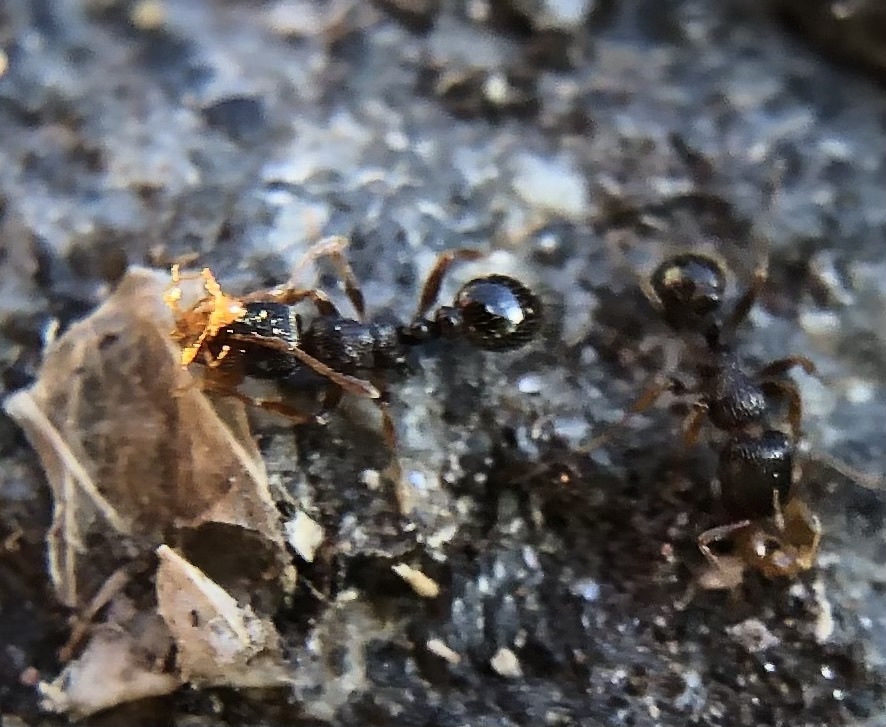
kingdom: Animalia
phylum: Arthropoda
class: Insecta
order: Hymenoptera
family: Formicidae
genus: Tetramorium
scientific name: Tetramorium immigrans
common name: Pavement ant
